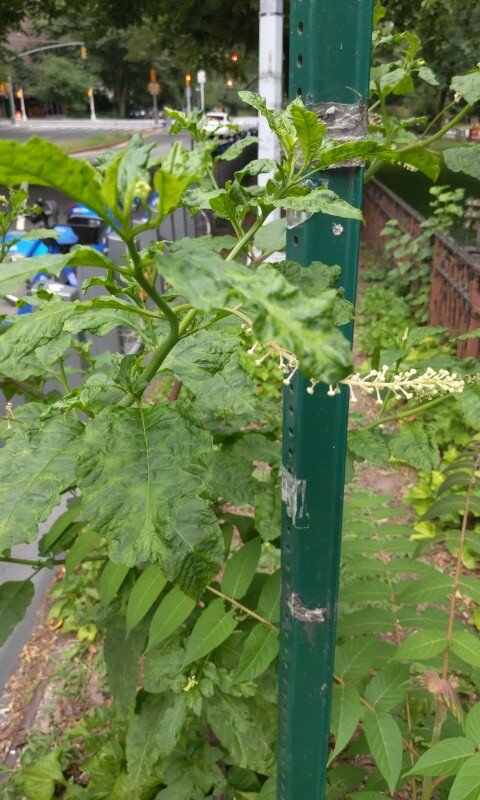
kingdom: Plantae
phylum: Tracheophyta
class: Magnoliopsida
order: Caryophyllales
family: Phytolaccaceae
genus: Phytolacca
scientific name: Phytolacca americana
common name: American pokeweed
